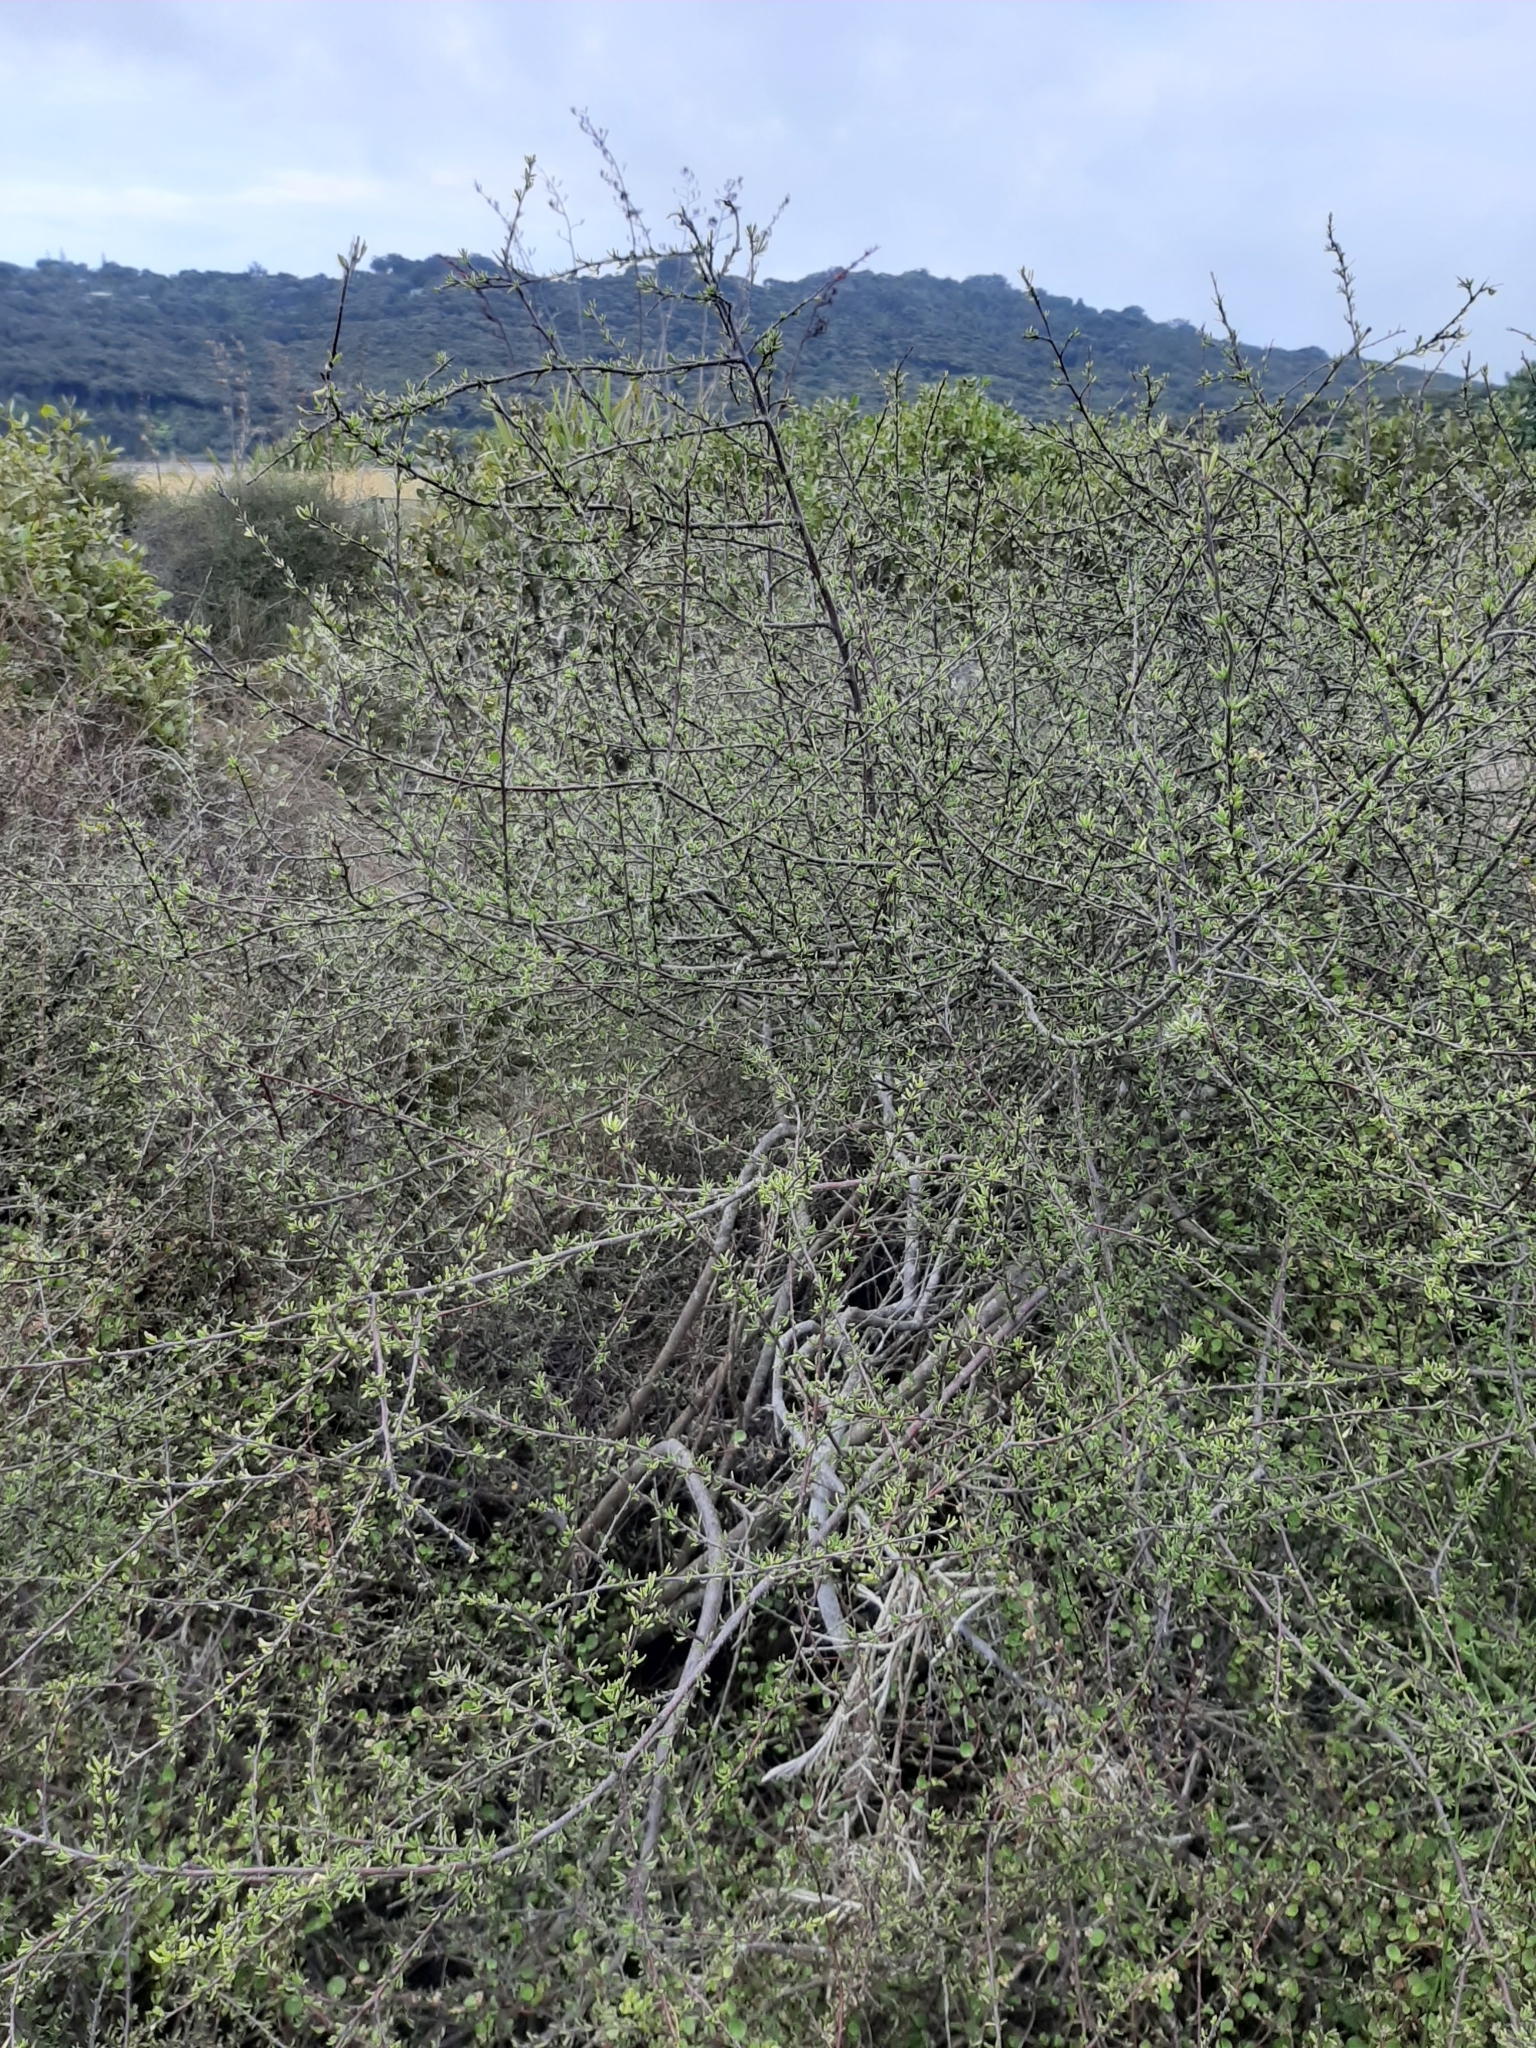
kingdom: Plantae
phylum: Tracheophyta
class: Magnoliopsida
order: Malvales
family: Malvaceae
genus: Plagianthus
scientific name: Plagianthus divaricatus
